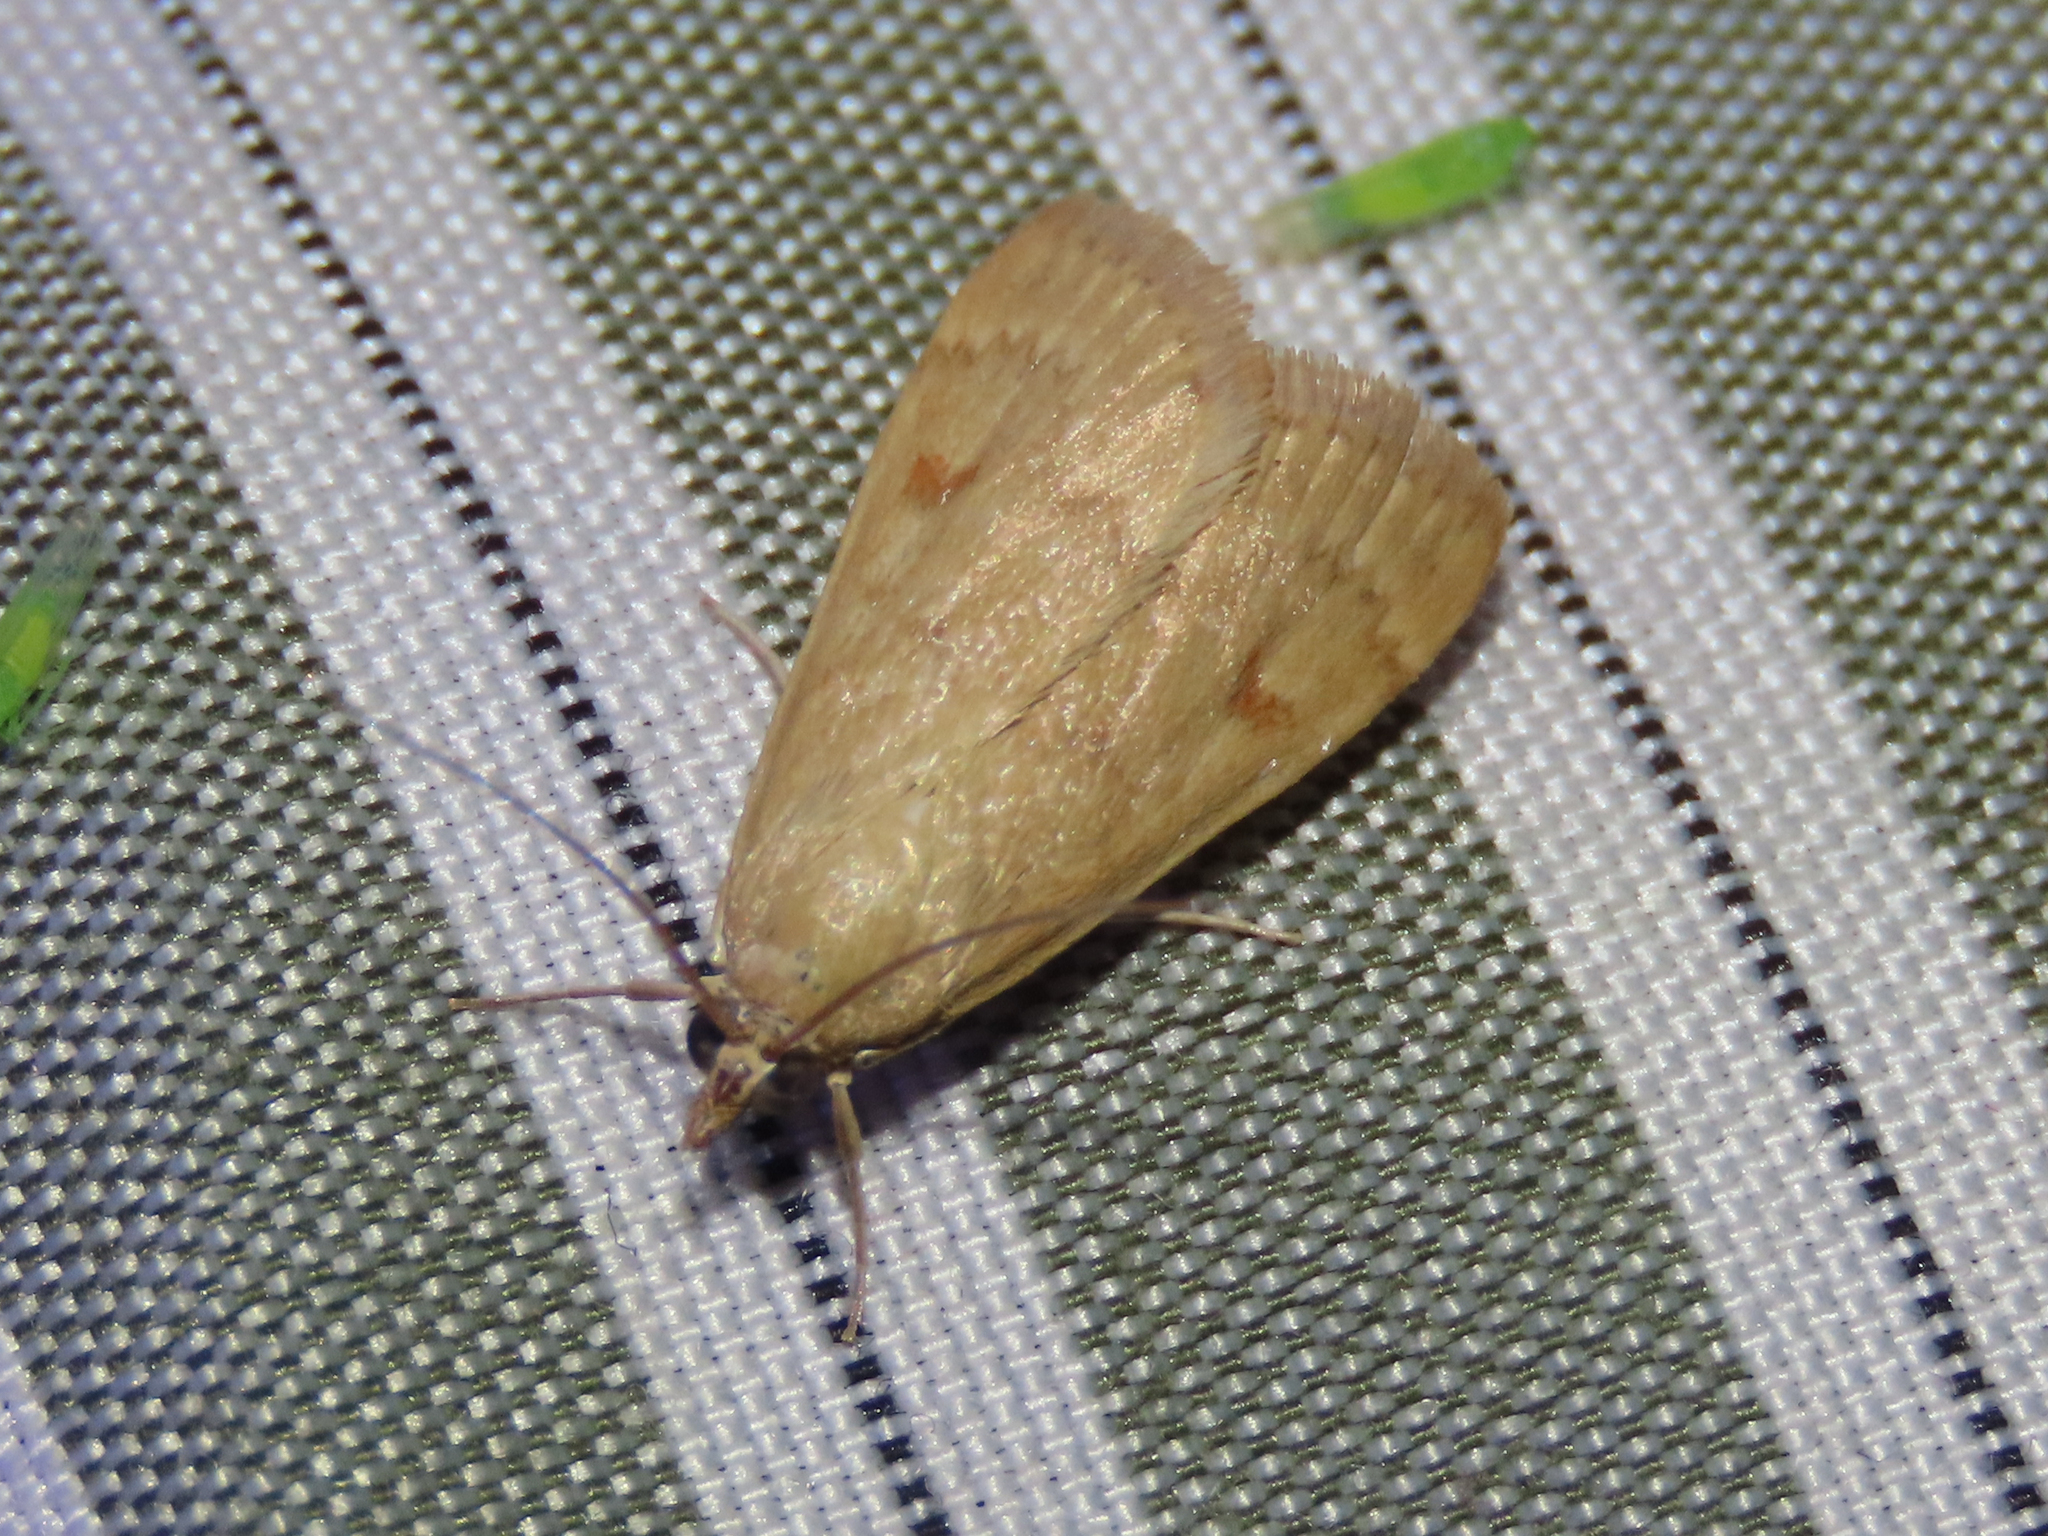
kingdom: Animalia
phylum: Arthropoda
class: Insecta
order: Lepidoptera
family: Crambidae
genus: Achyra
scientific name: Achyra rantalis
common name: Garden webworm
